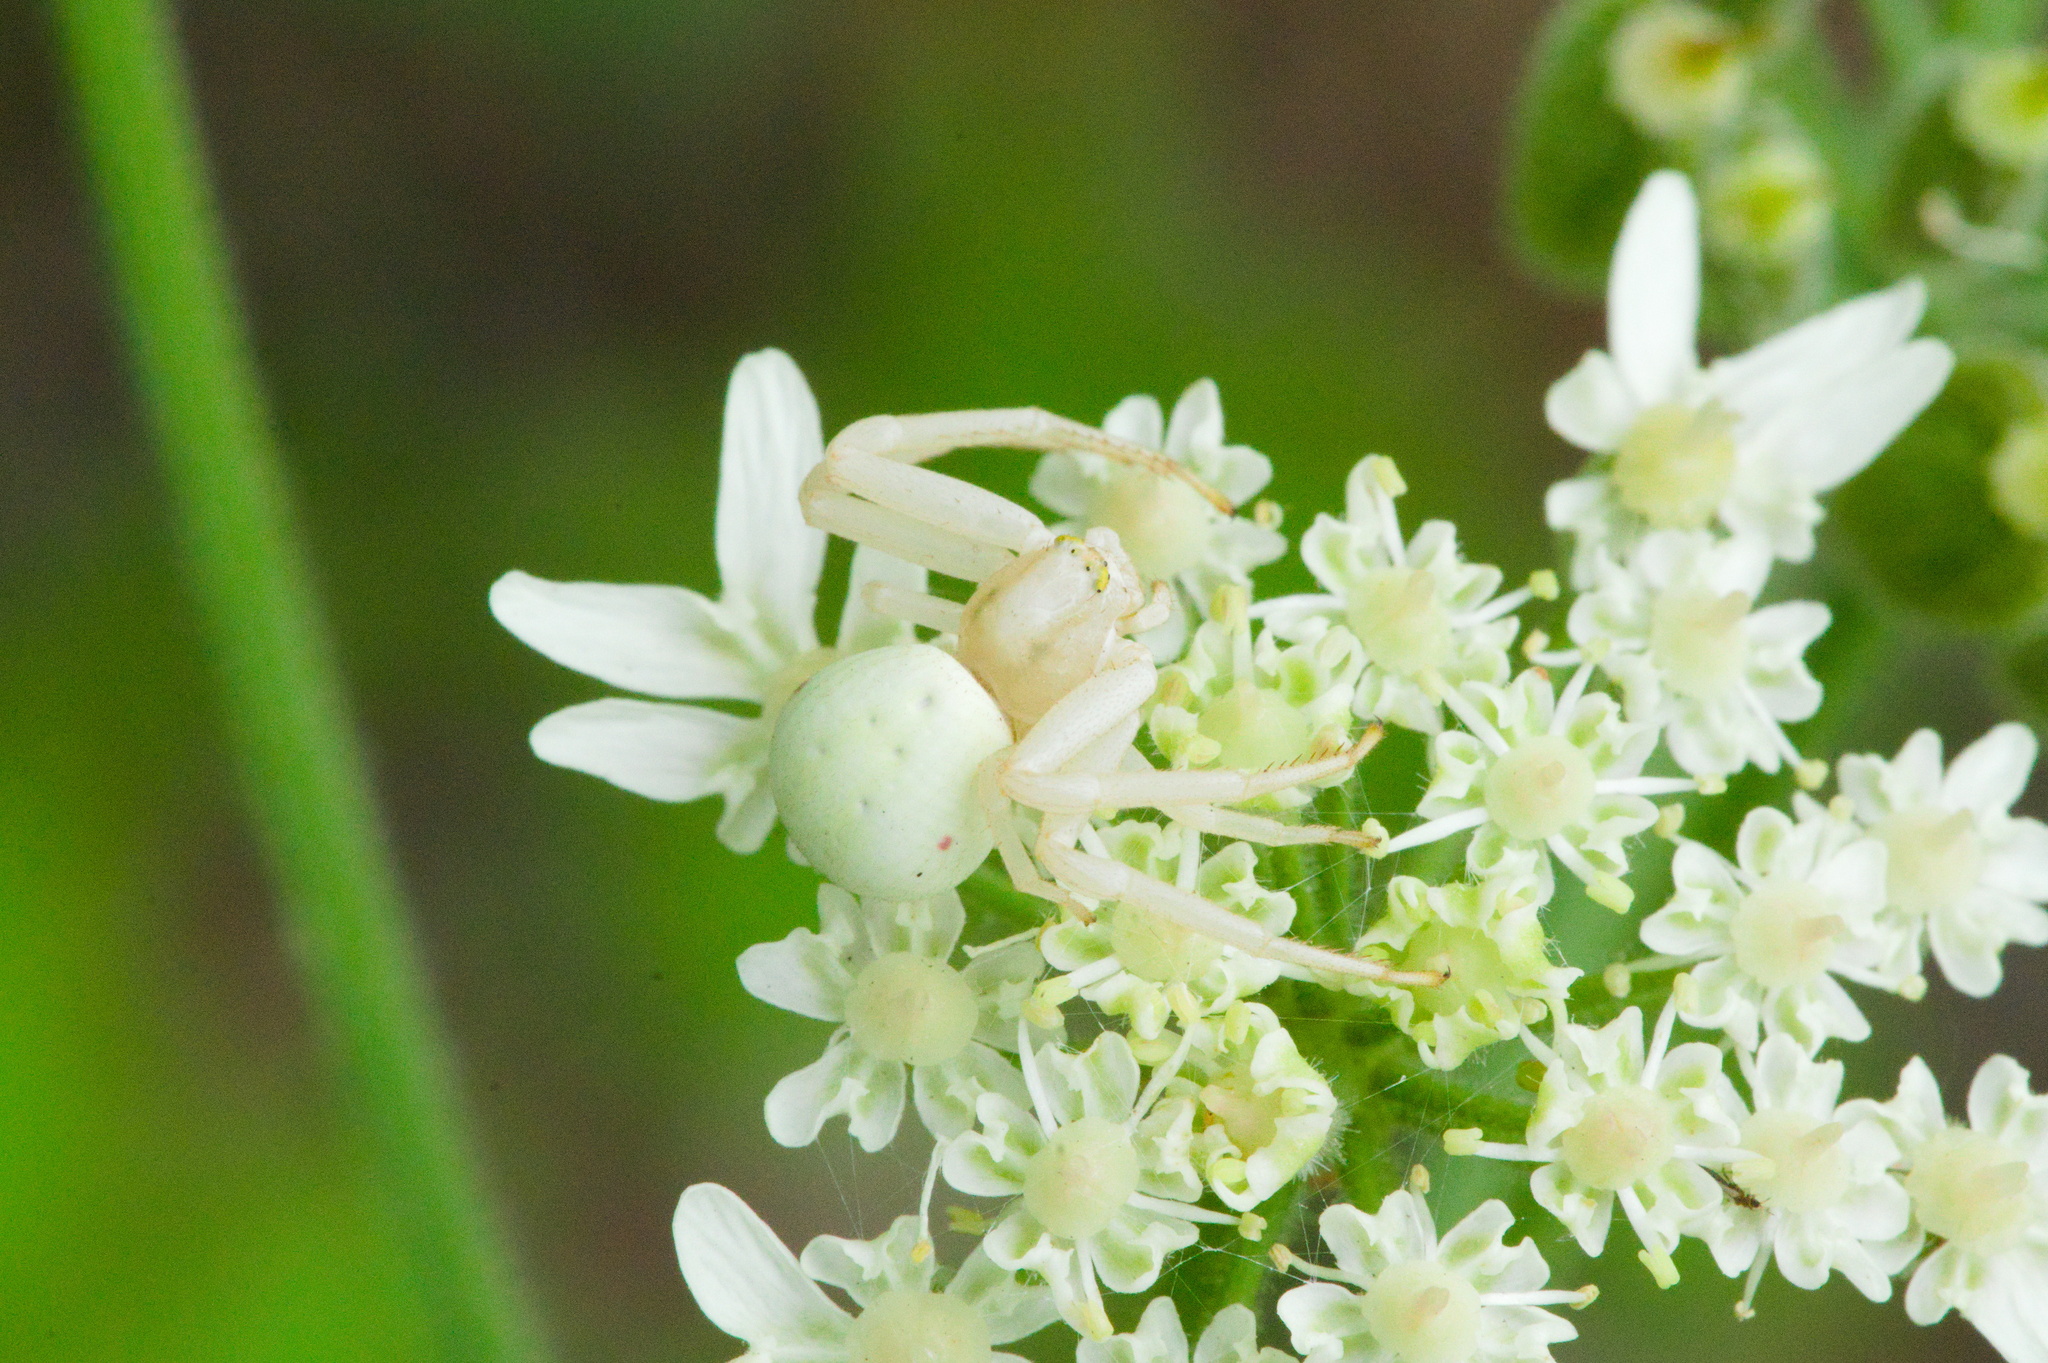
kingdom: Animalia
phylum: Arthropoda
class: Arachnida
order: Araneae
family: Thomisidae
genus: Misumena
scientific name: Misumena vatia
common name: Goldenrod crab spider
